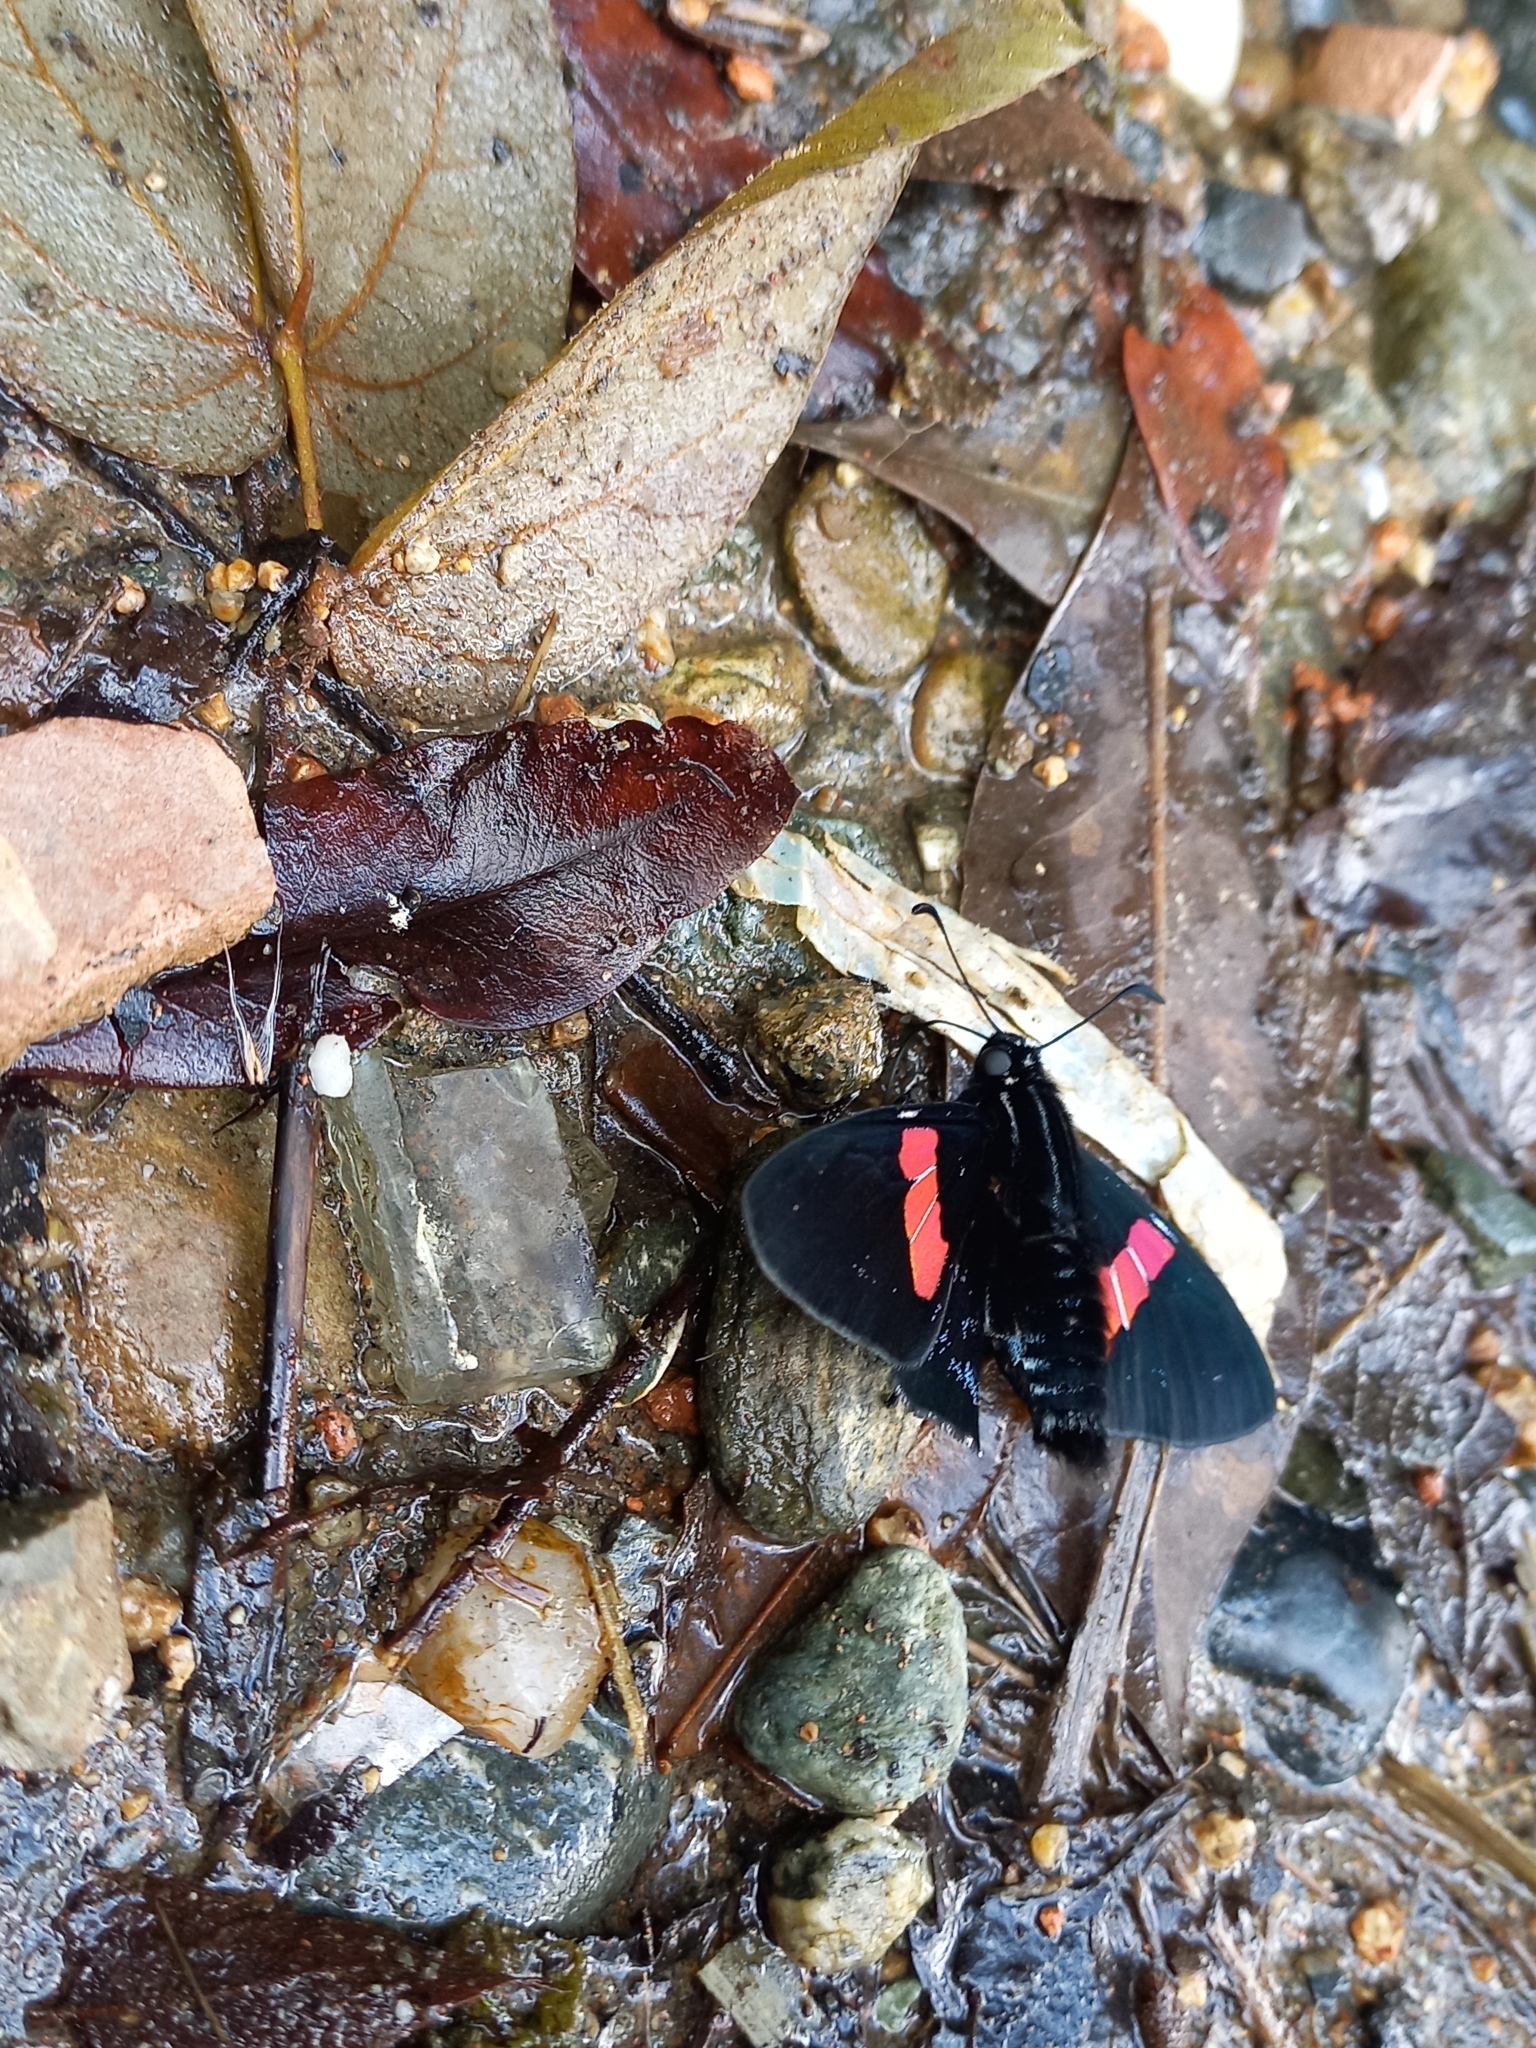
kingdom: Animalia
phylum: Arthropoda
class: Insecta
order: Lepidoptera
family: Hesperiidae
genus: Mimoniades
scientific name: Mimoniades nurscia
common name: Nursica skipper
